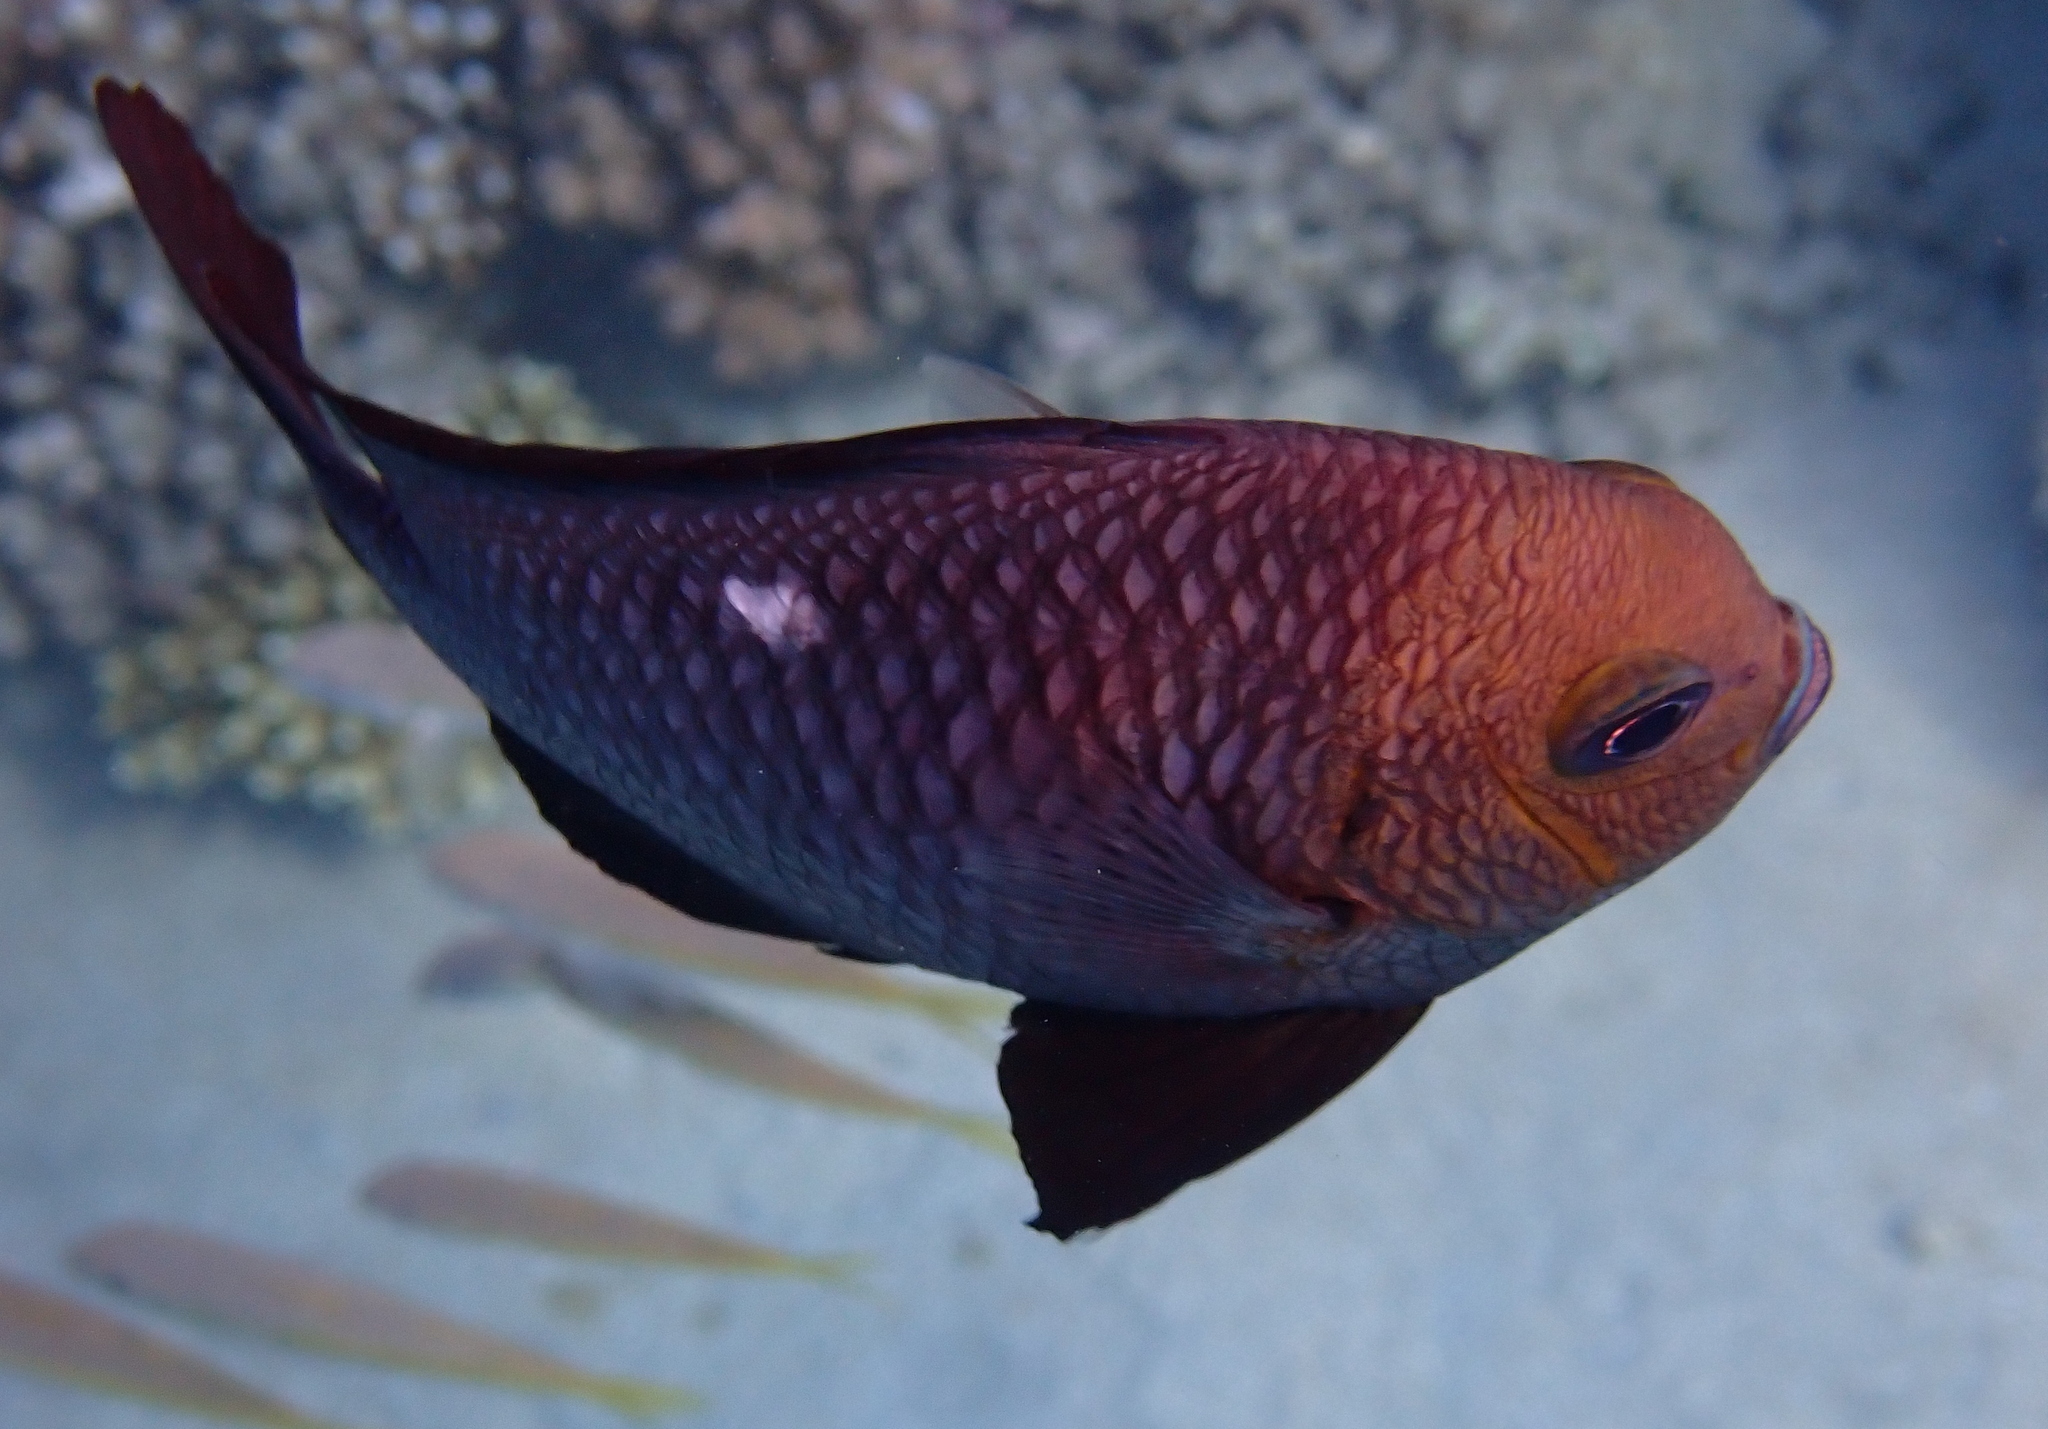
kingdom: Animalia
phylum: Chordata
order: Perciformes
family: Pomacentridae
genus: Dascyllus
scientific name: Dascyllus trimaculatus
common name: Threespot dascyllus
